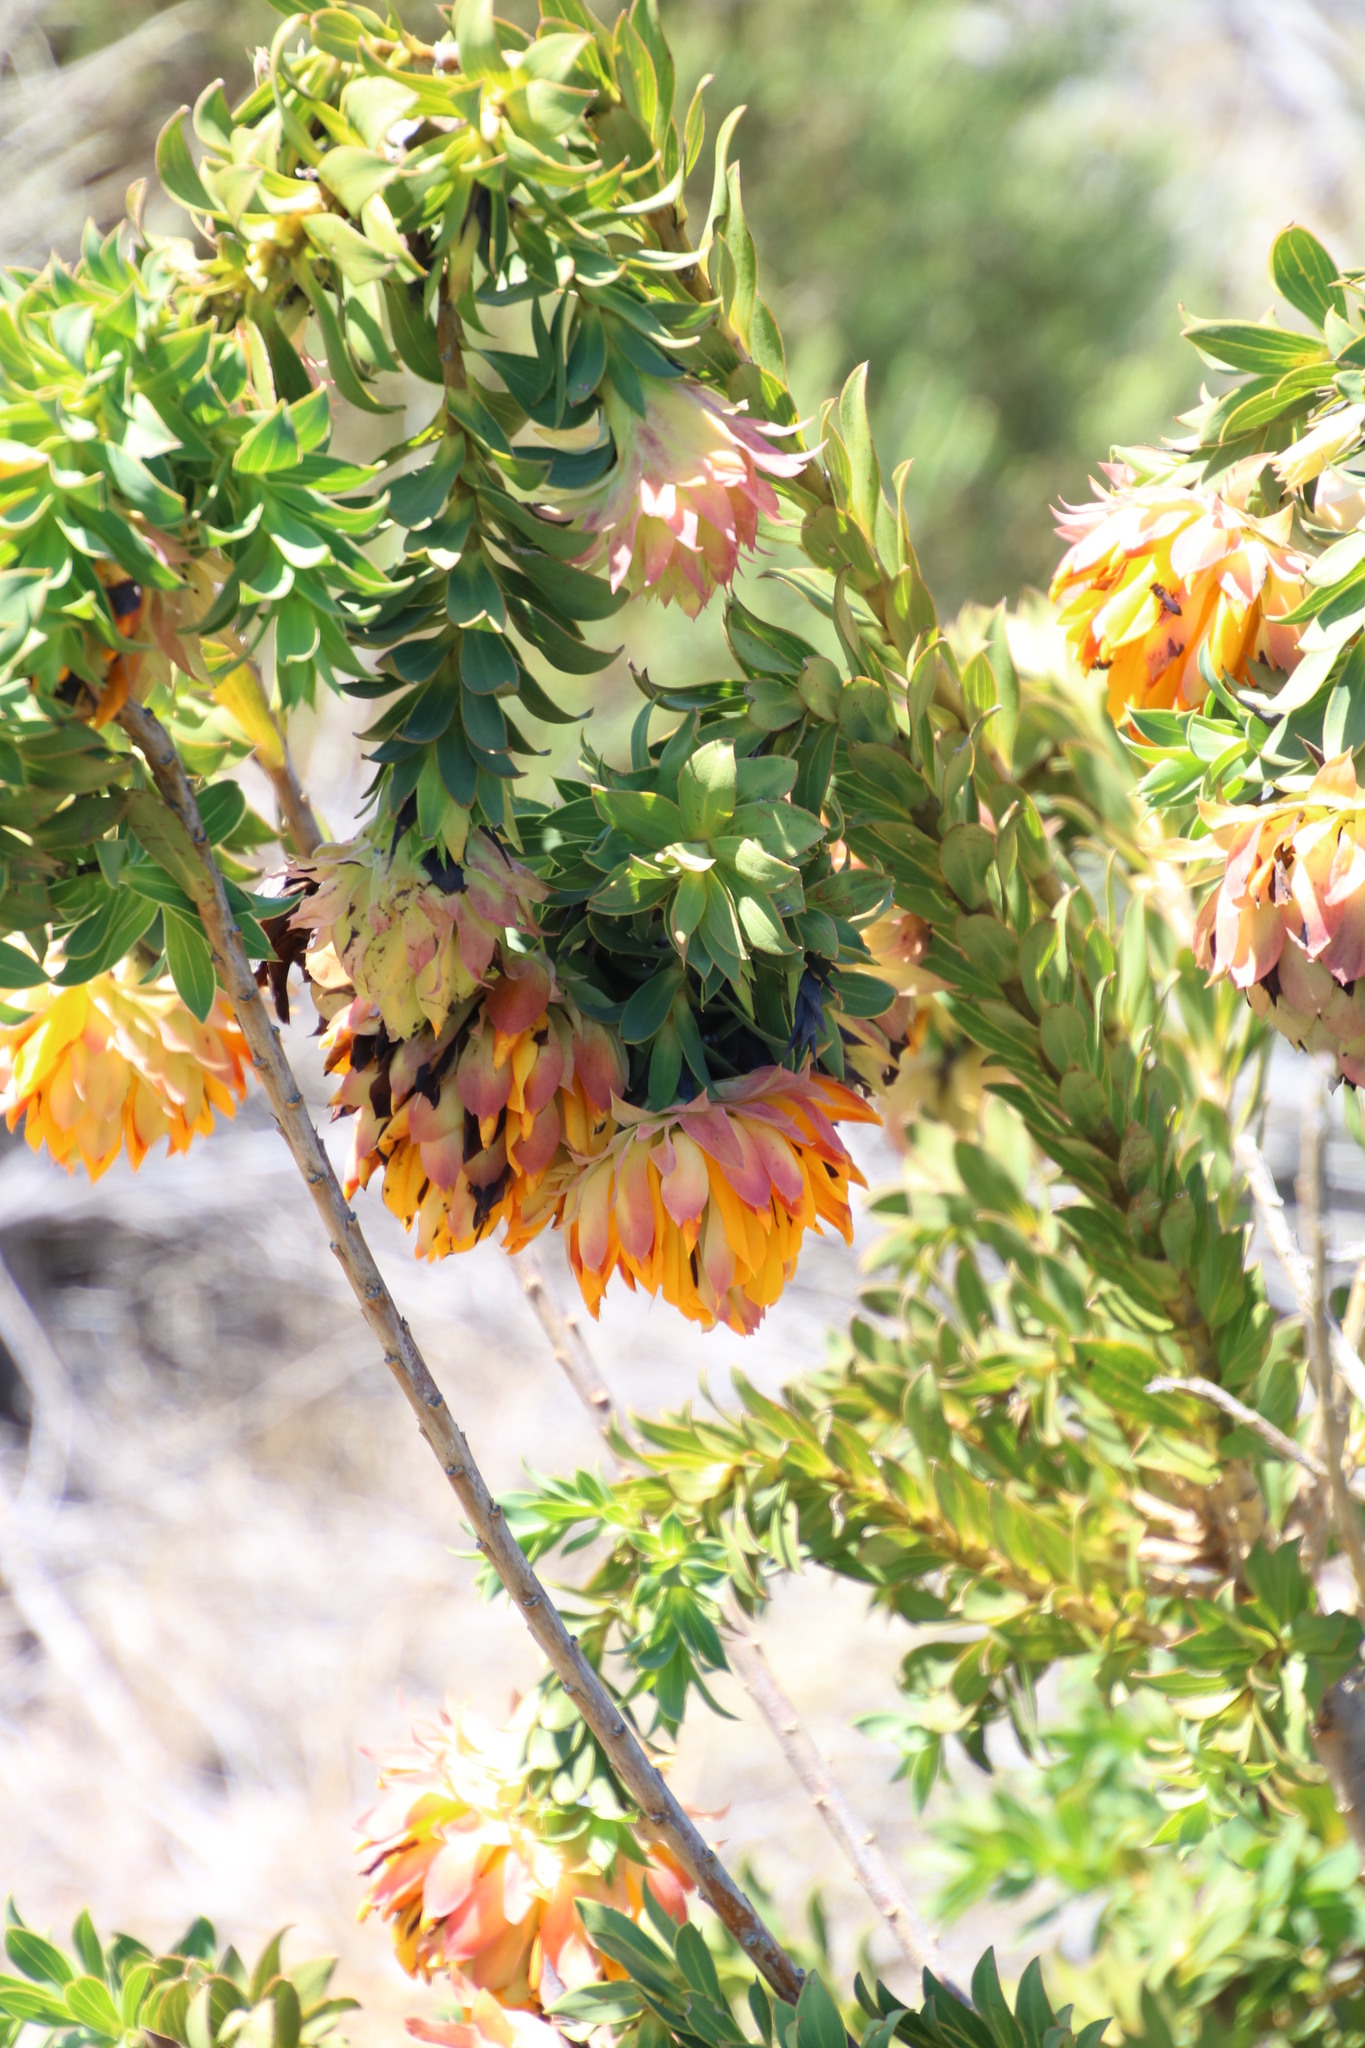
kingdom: Plantae
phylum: Tracheophyta
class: Magnoliopsida
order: Fabales
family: Fabaceae
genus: Liparia
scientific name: Liparia splendens
